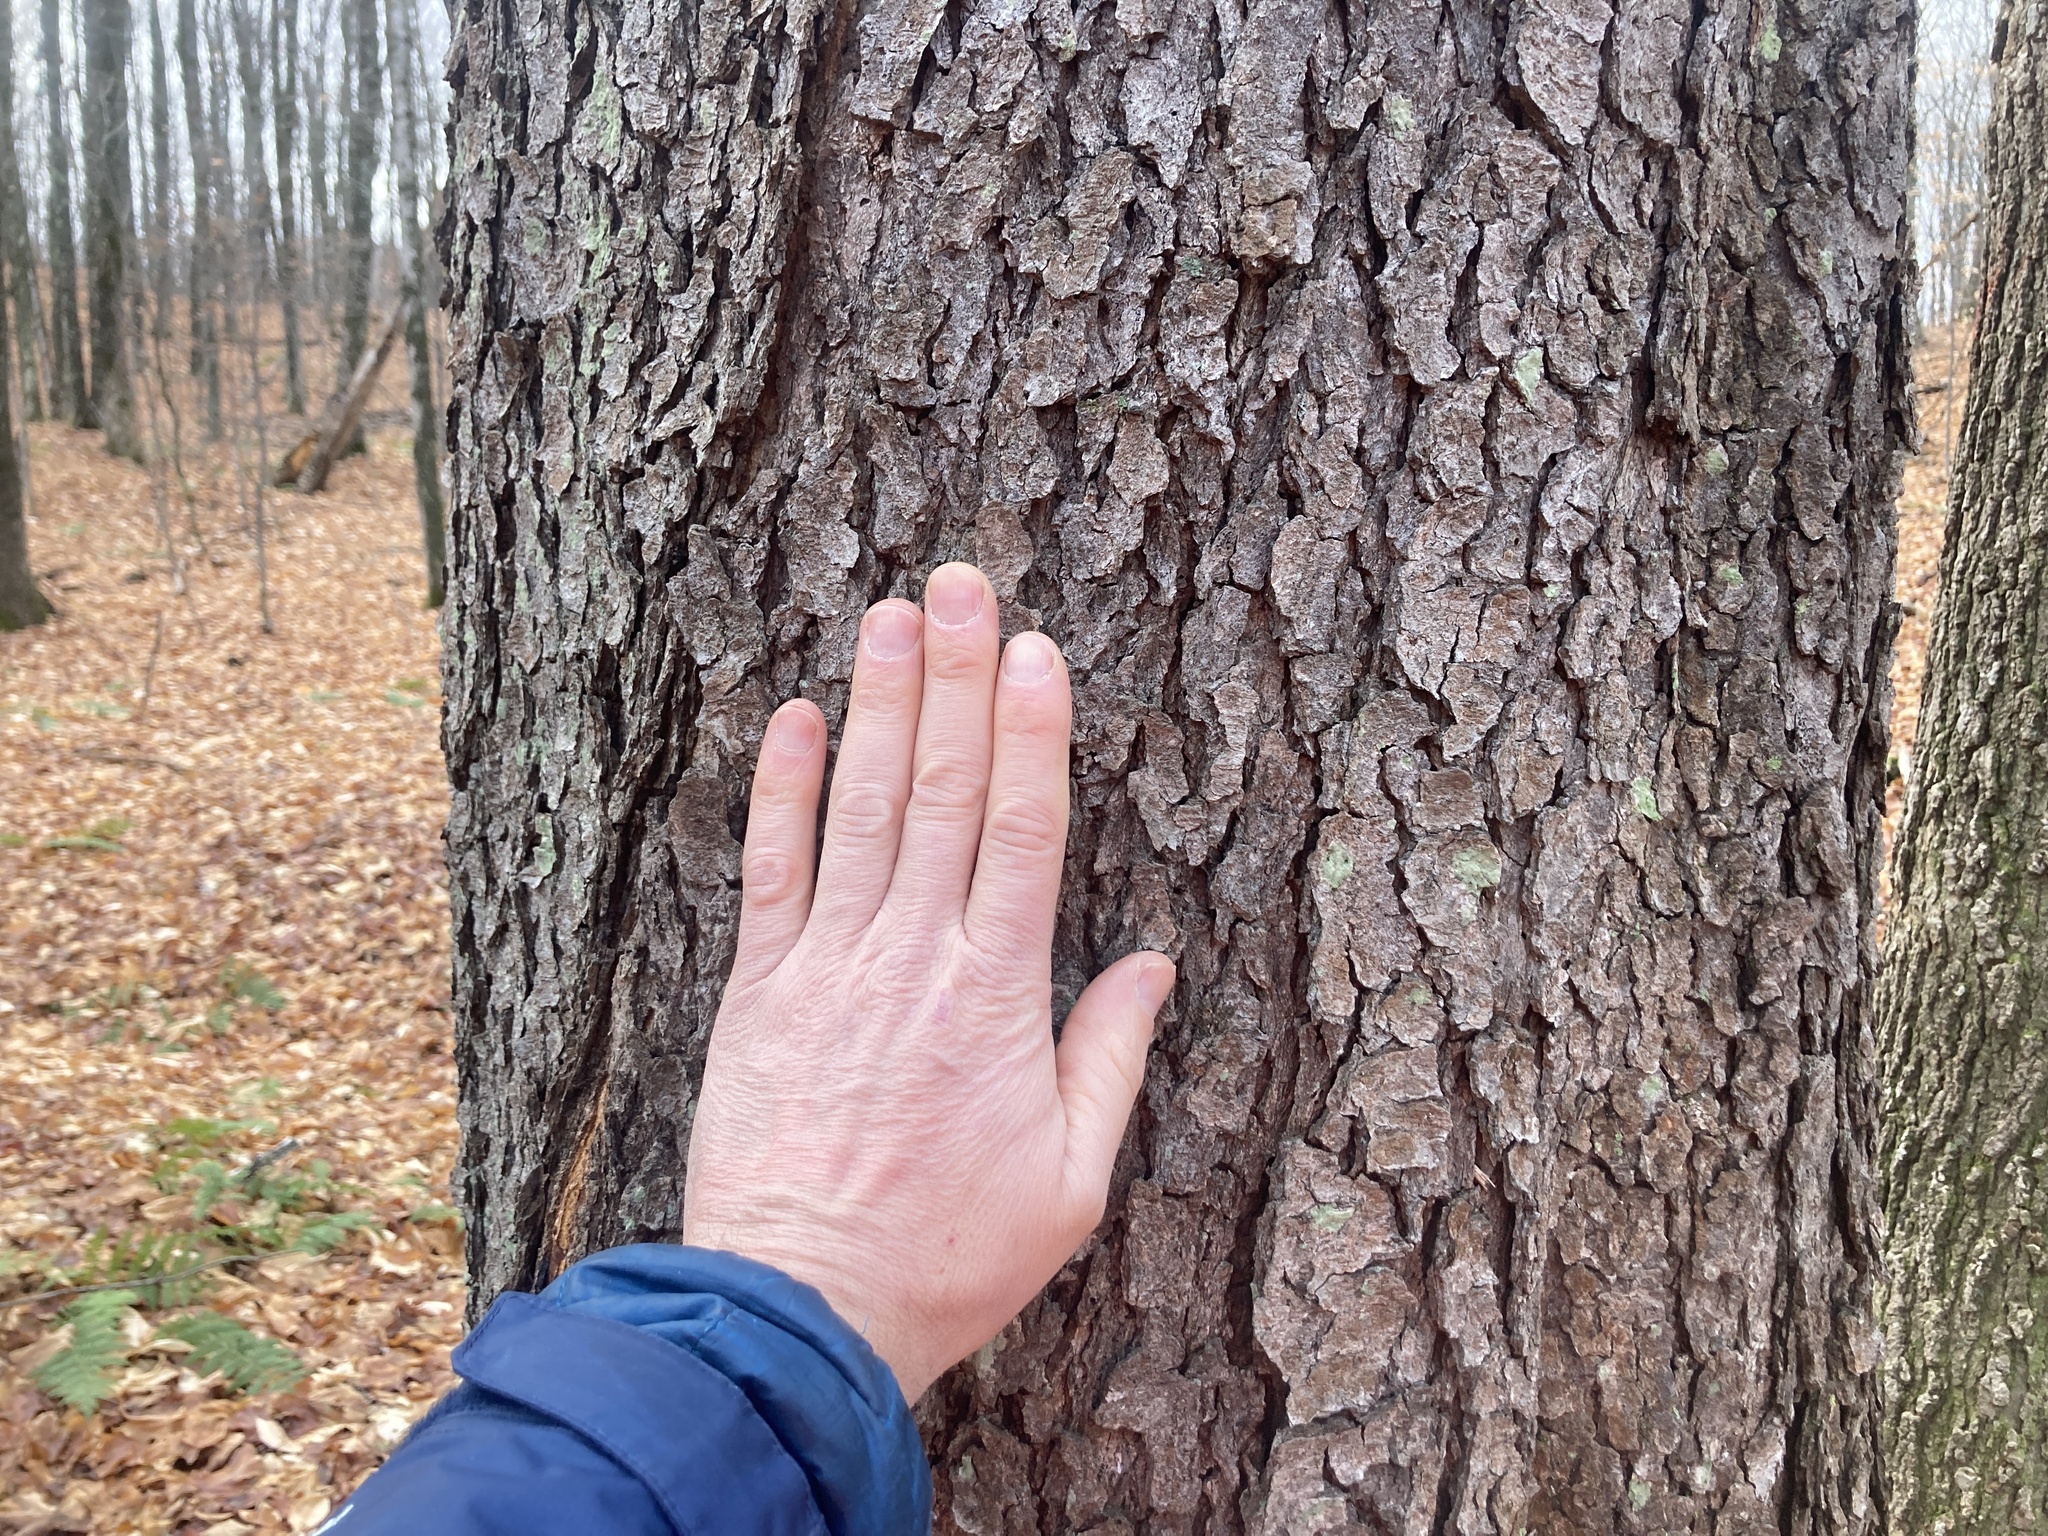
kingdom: Plantae
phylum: Tracheophyta
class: Magnoliopsida
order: Rosales
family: Rosaceae
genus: Prunus
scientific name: Prunus serotina
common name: Black cherry
